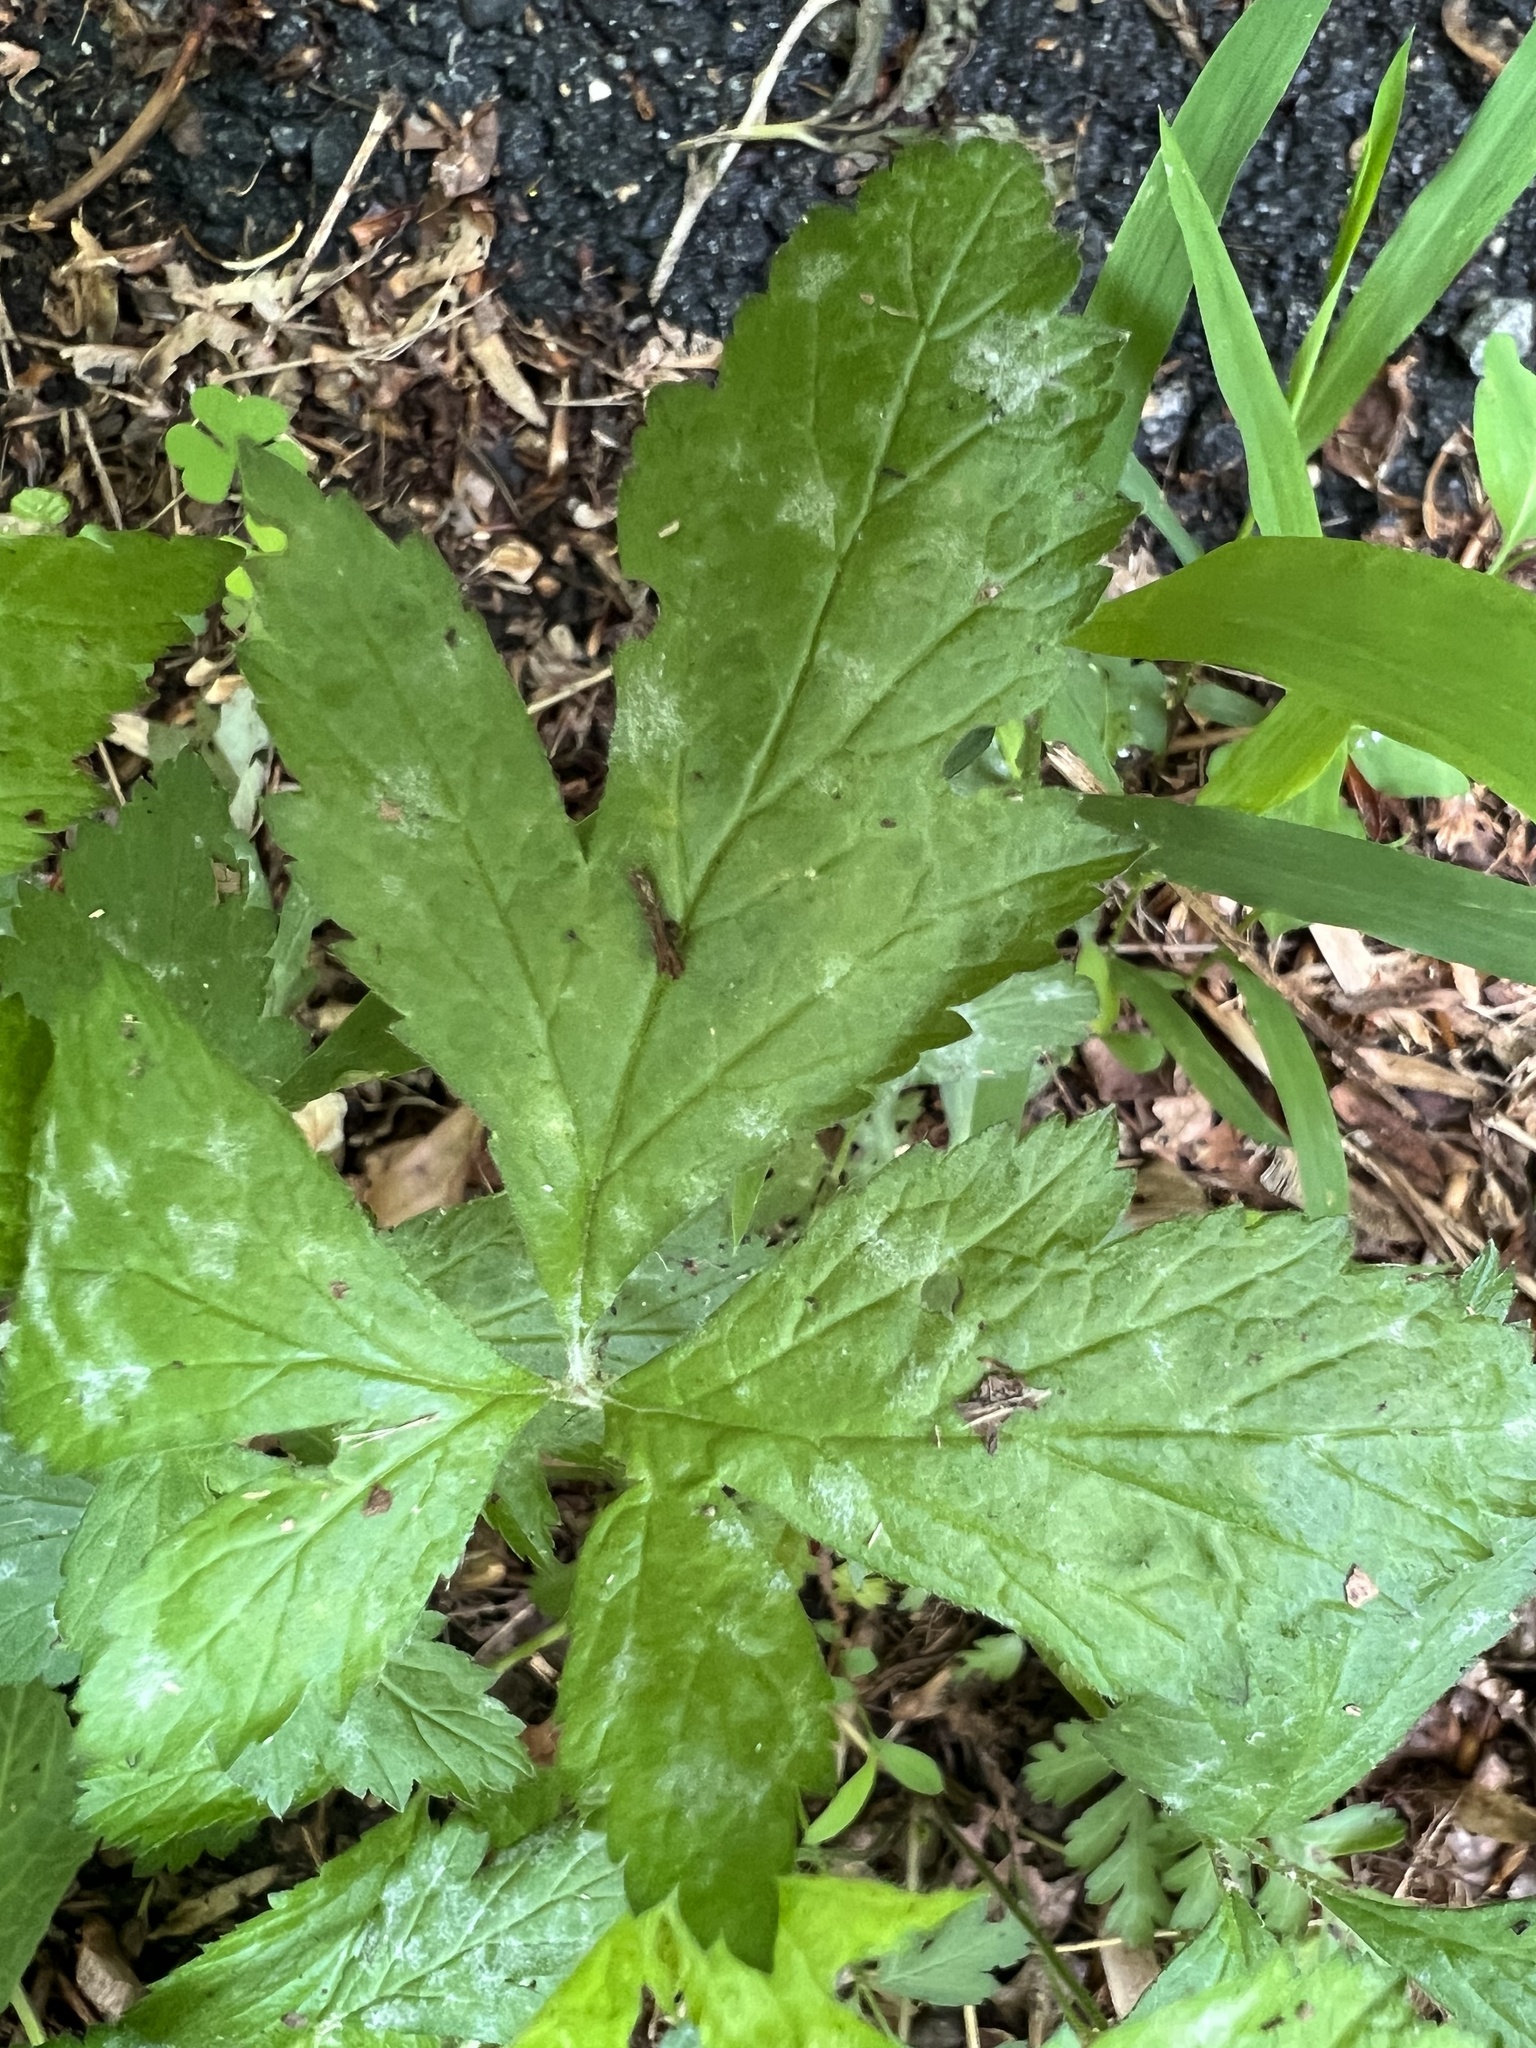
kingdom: Fungi
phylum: Ascomycota
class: Leotiomycetes
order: Helotiales
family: Erysiphaceae
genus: Podosphaera
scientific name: Podosphaera aphanis
